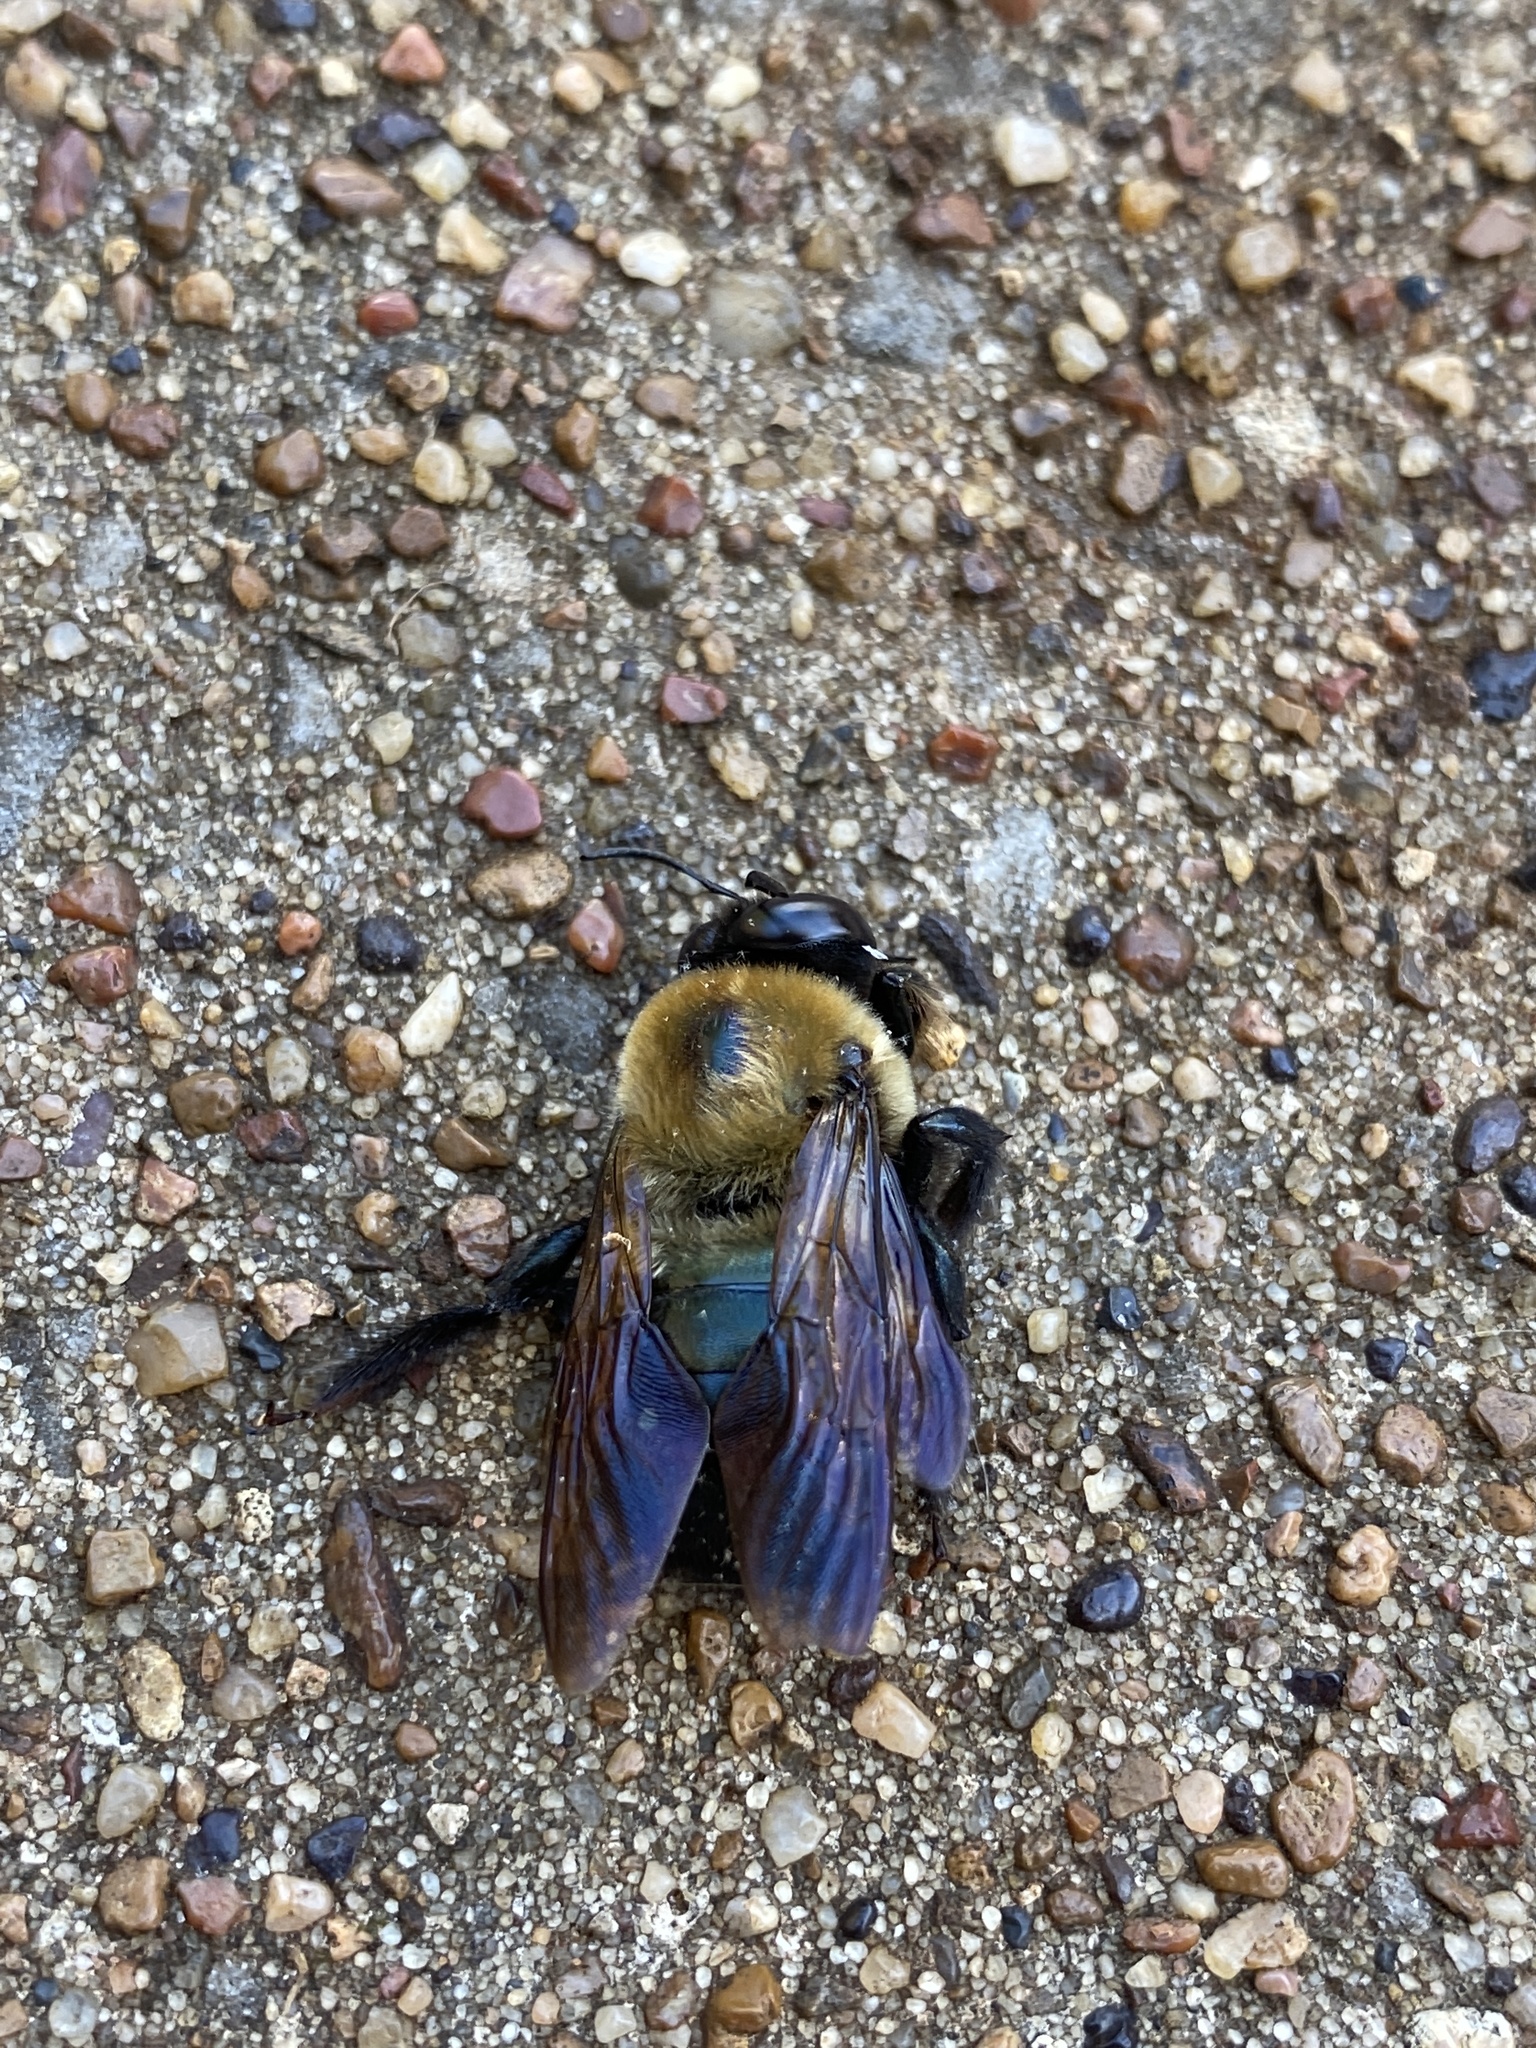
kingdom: Animalia
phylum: Arthropoda
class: Insecta
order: Hymenoptera
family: Apidae
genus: Xylocopa
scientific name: Xylocopa virginica
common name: Carpenter bee
